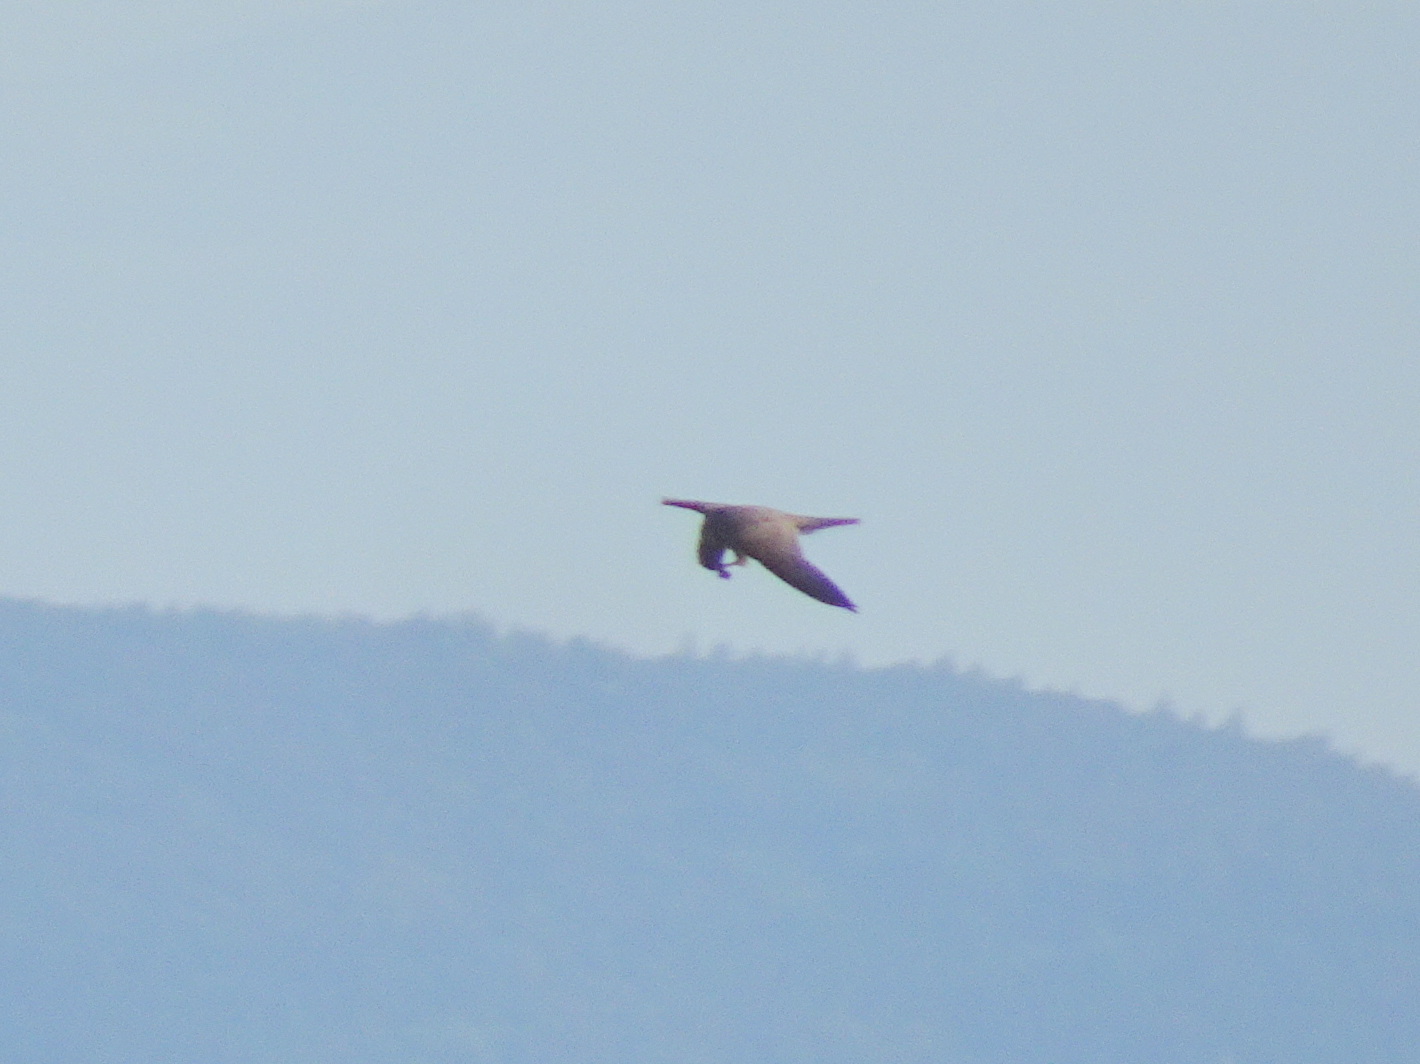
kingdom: Animalia
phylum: Chordata
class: Aves
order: Falconiformes
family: Falconidae
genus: Falco
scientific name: Falco subbuteo
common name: Eurasian hobby
